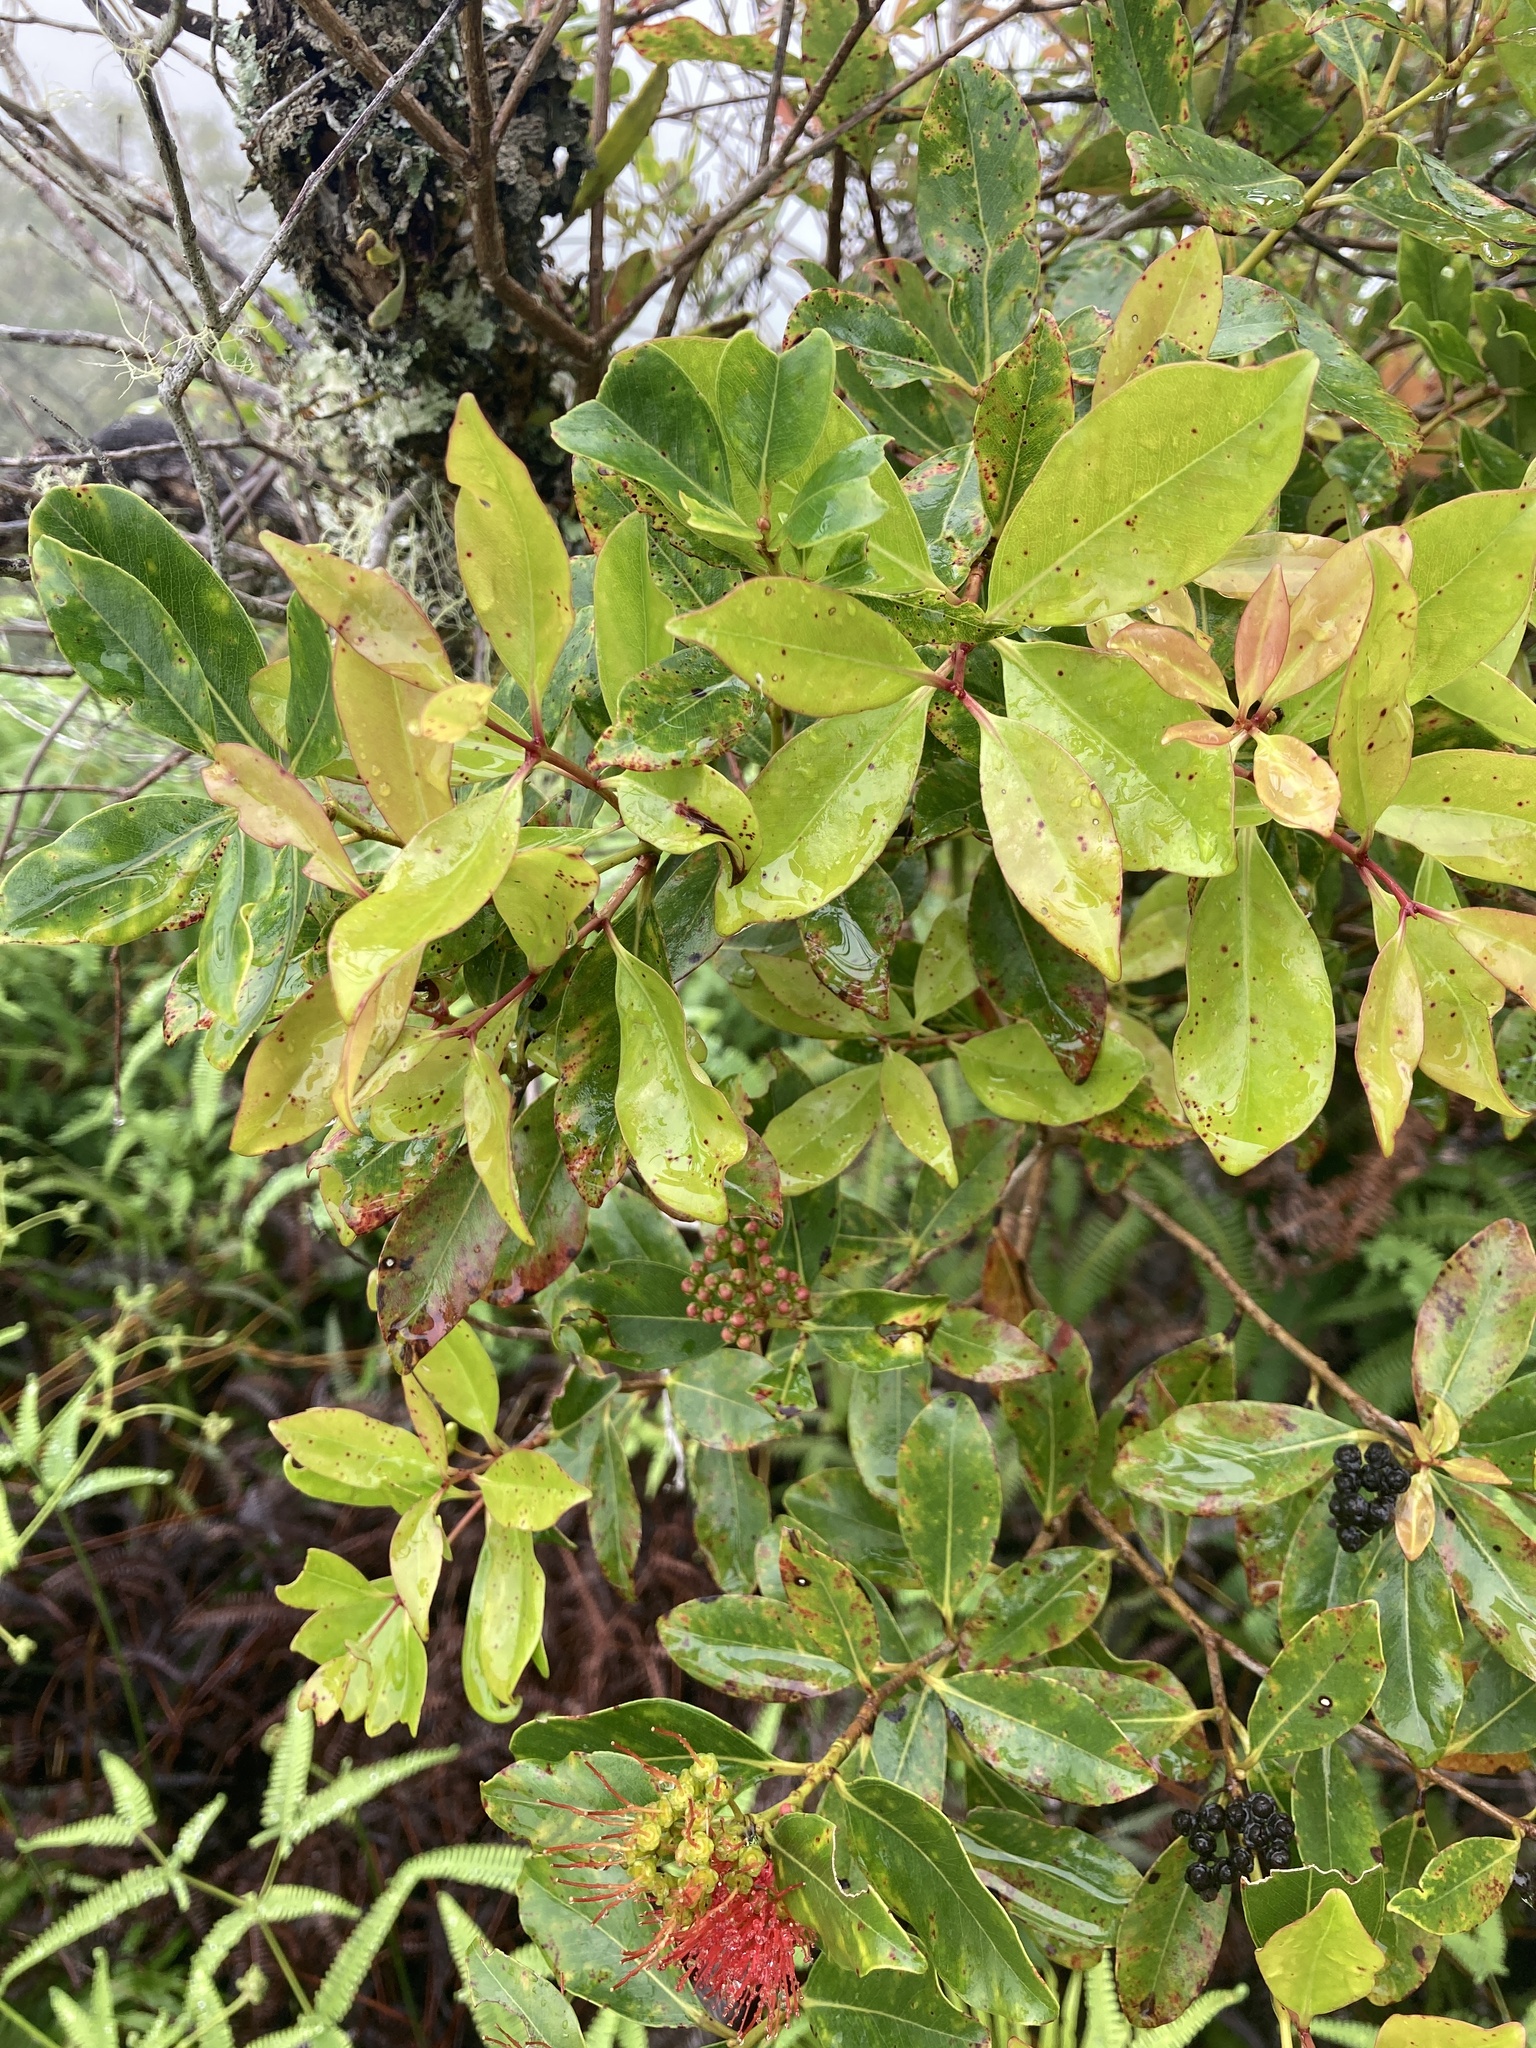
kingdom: Plantae
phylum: Tracheophyta
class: Magnoliopsida
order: Myrtales
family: Myrtaceae
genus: Metrosideros
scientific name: Metrosideros collina
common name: Vunga
